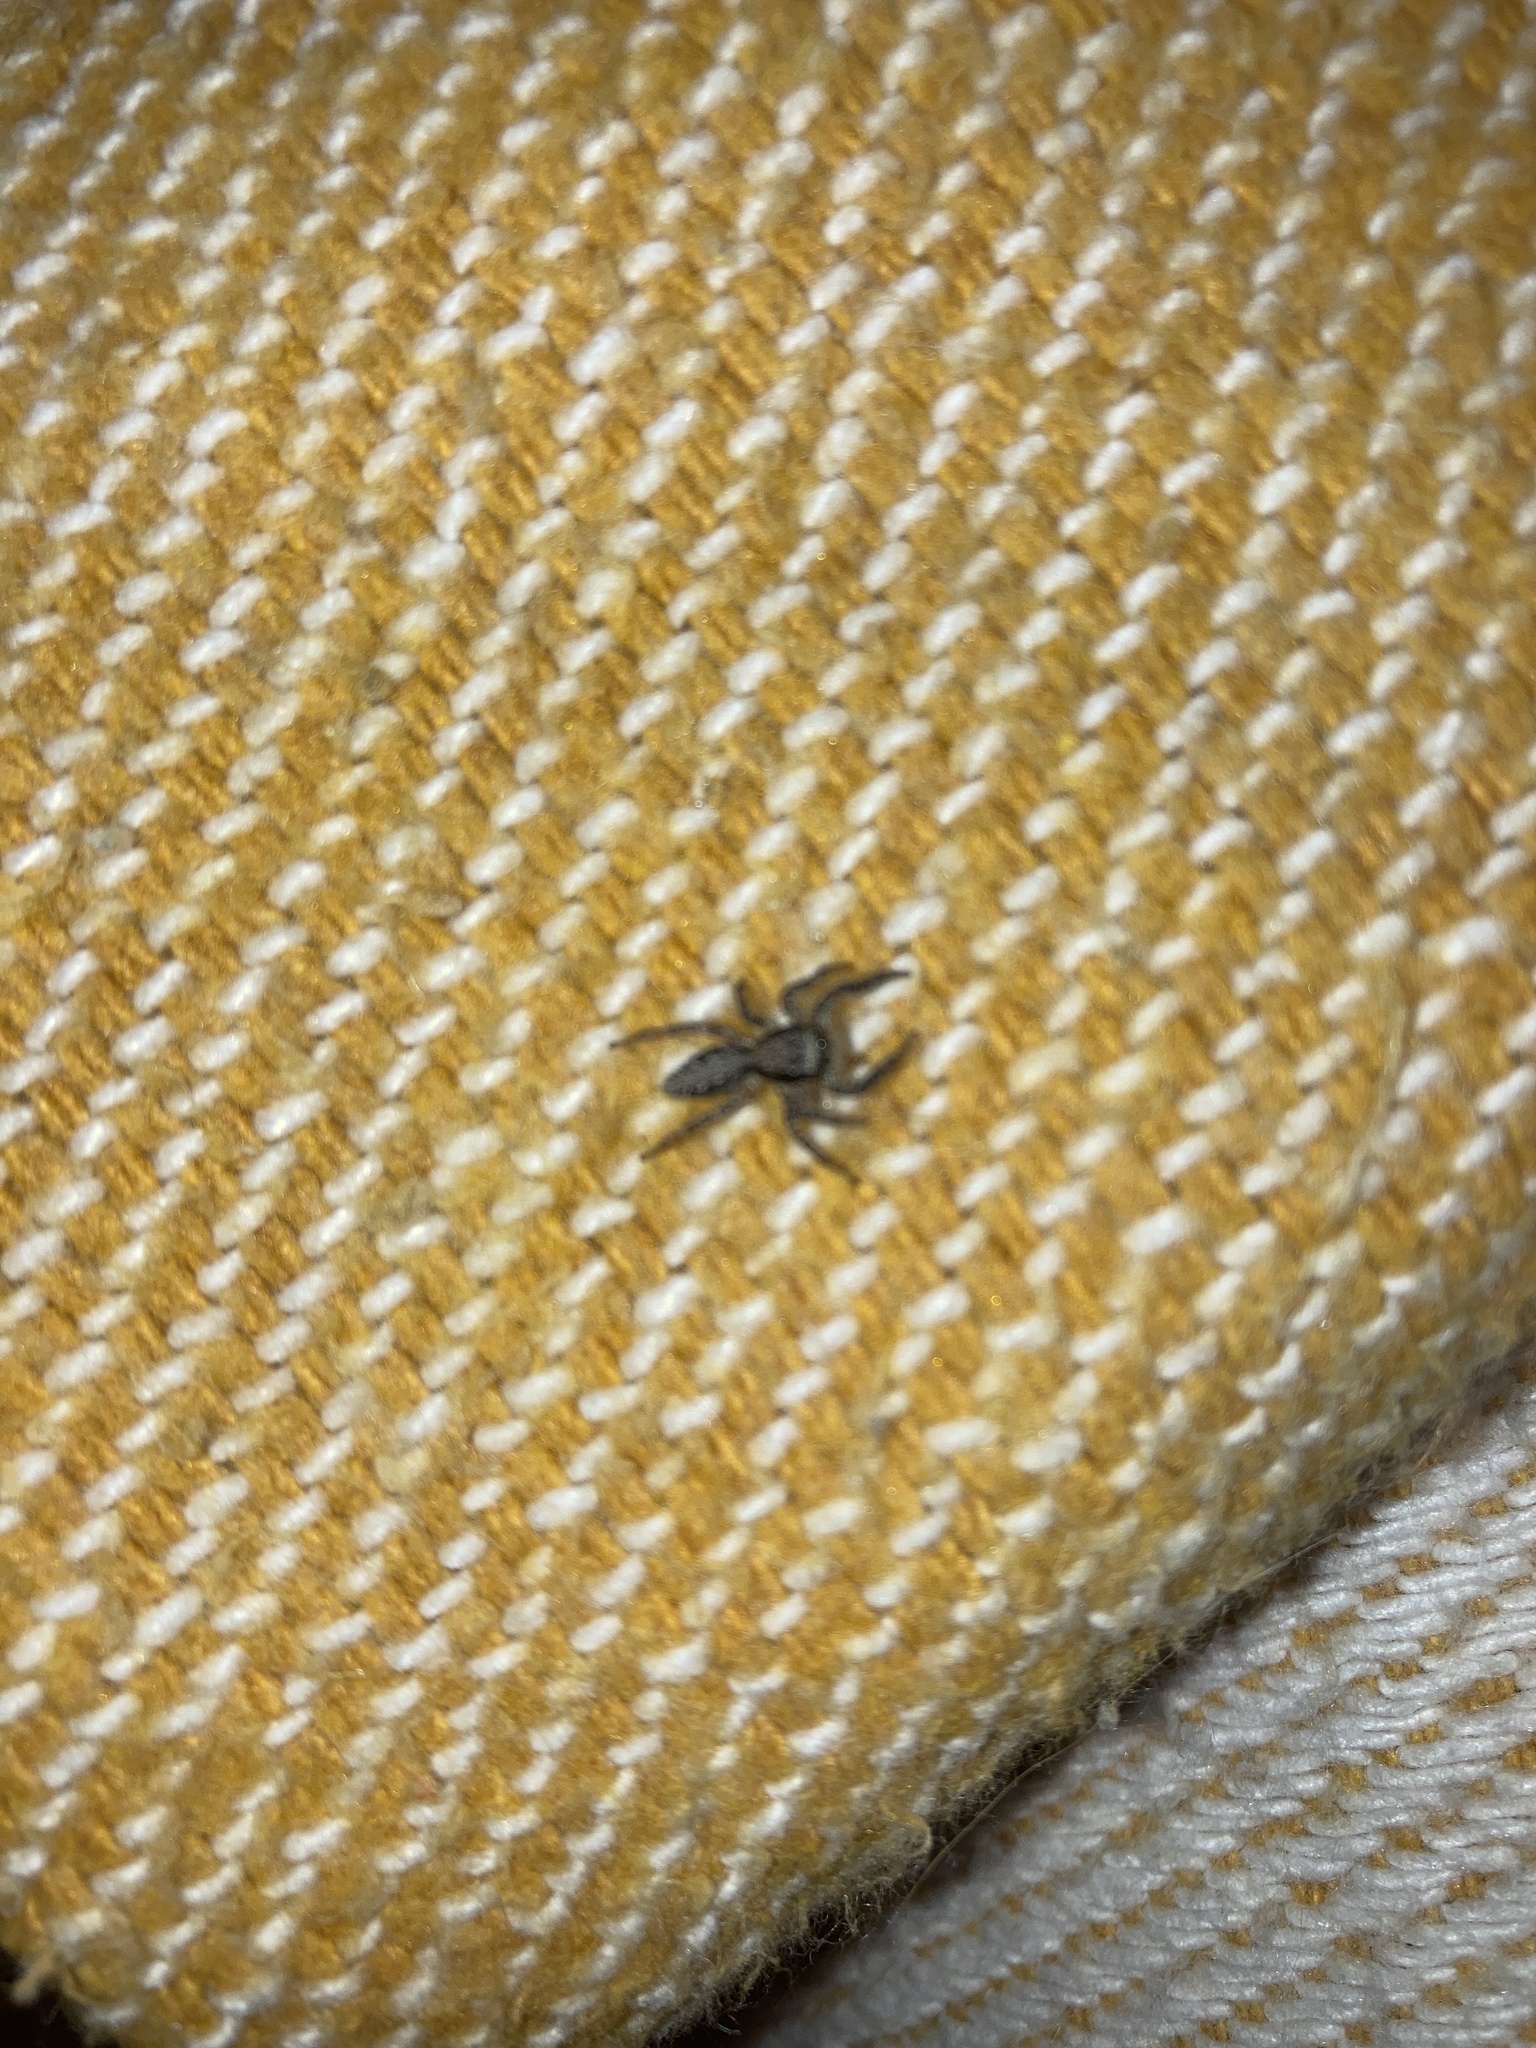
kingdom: Animalia
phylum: Arthropoda
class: Arachnida
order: Araneae
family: Salticidae
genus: Platycryptus
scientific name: Platycryptus californicus
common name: Jumping spiders
